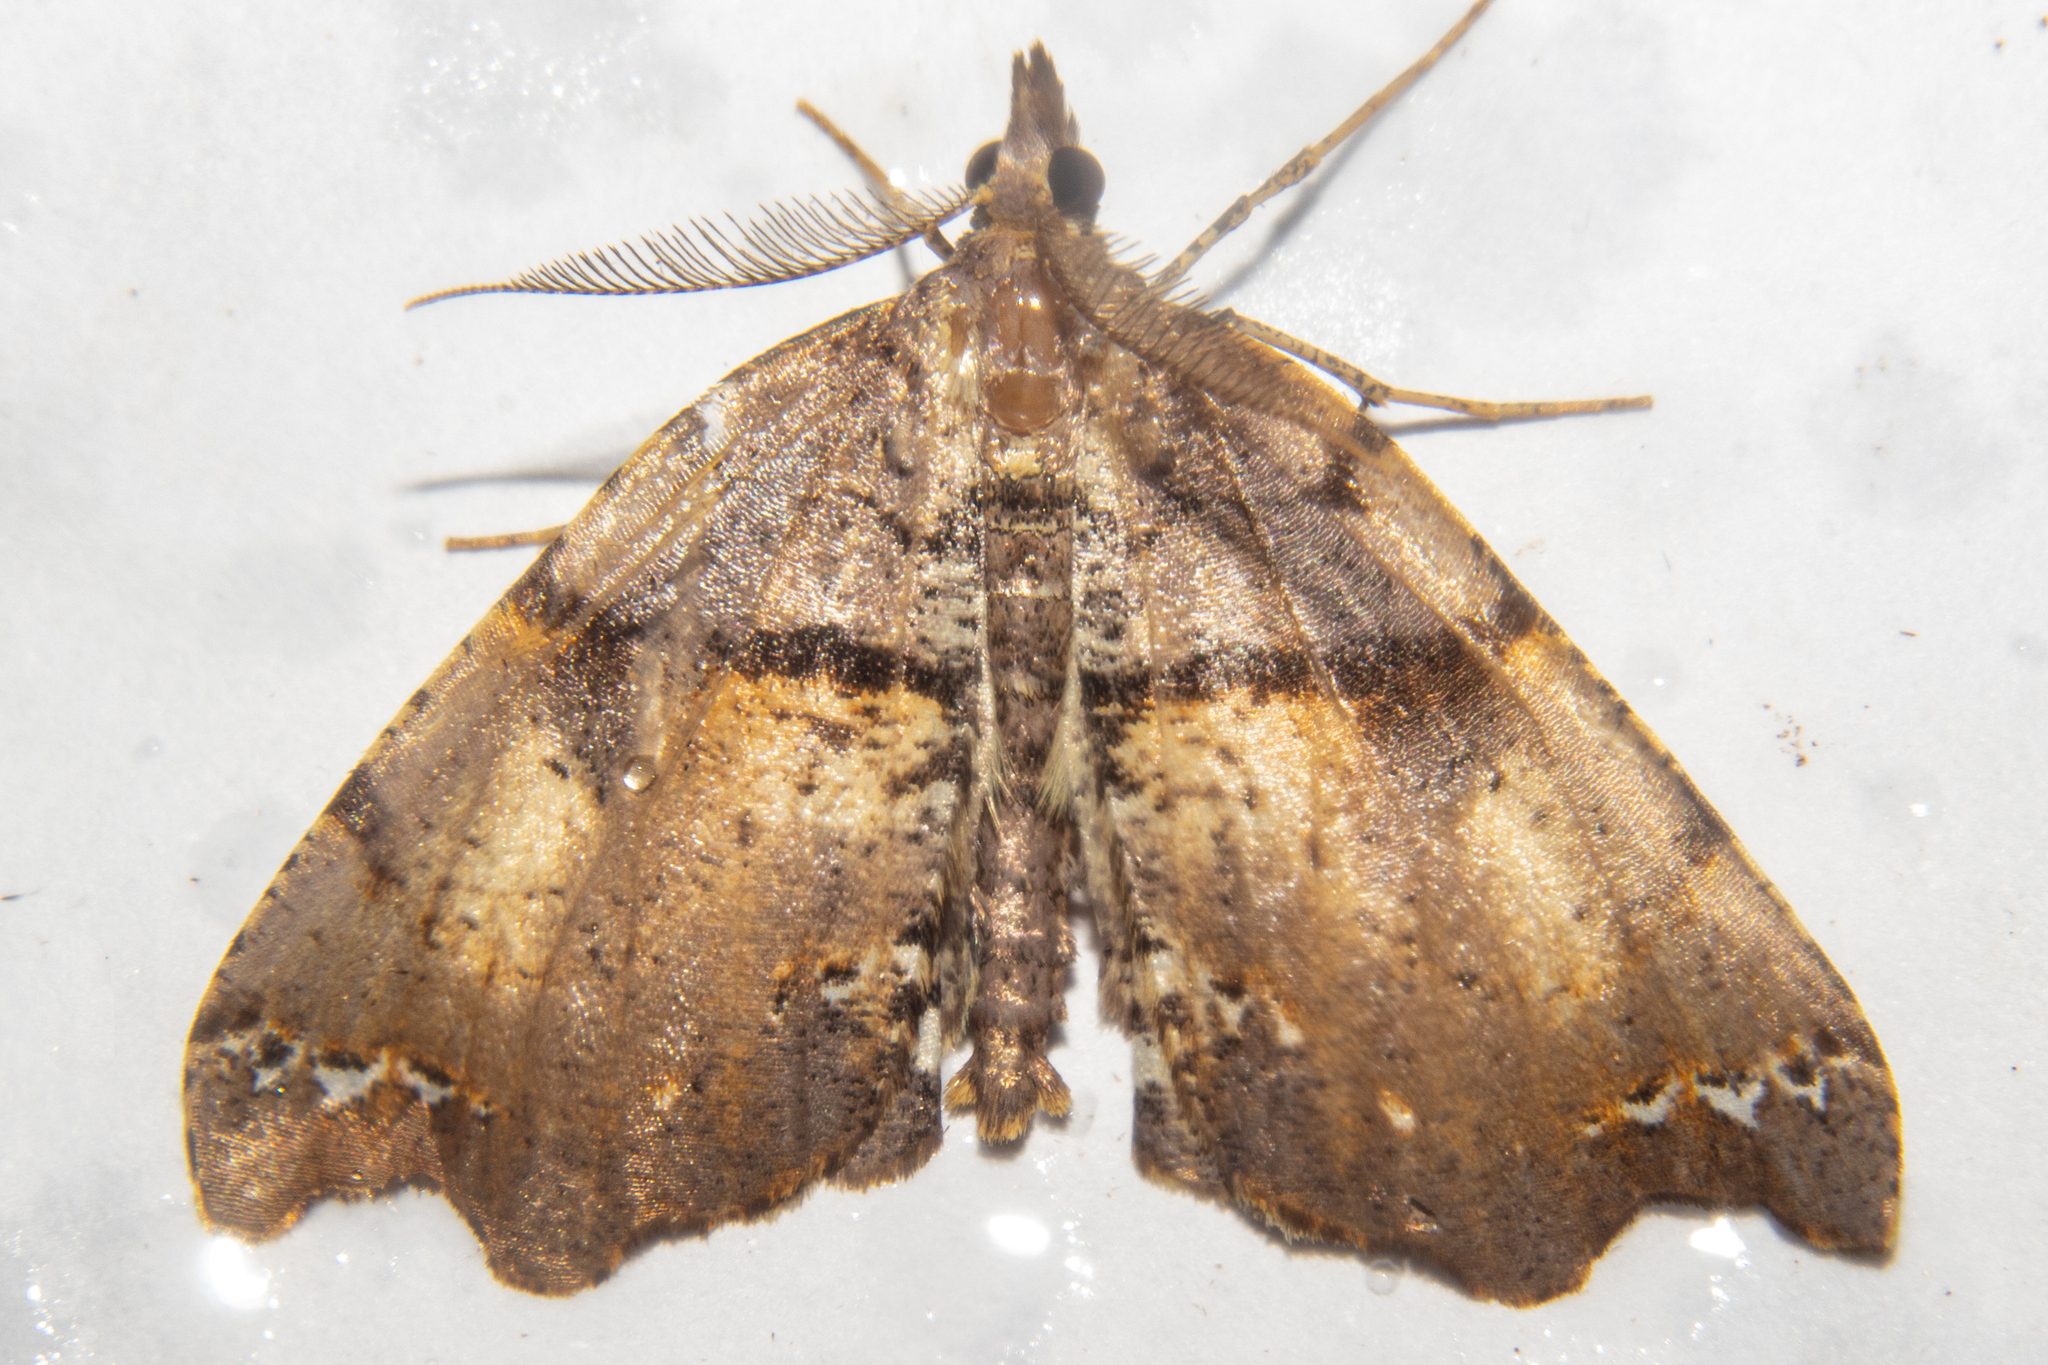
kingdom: Animalia
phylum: Arthropoda
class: Insecta
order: Lepidoptera
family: Geometridae
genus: Chalastra
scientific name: Chalastra pellurgata
